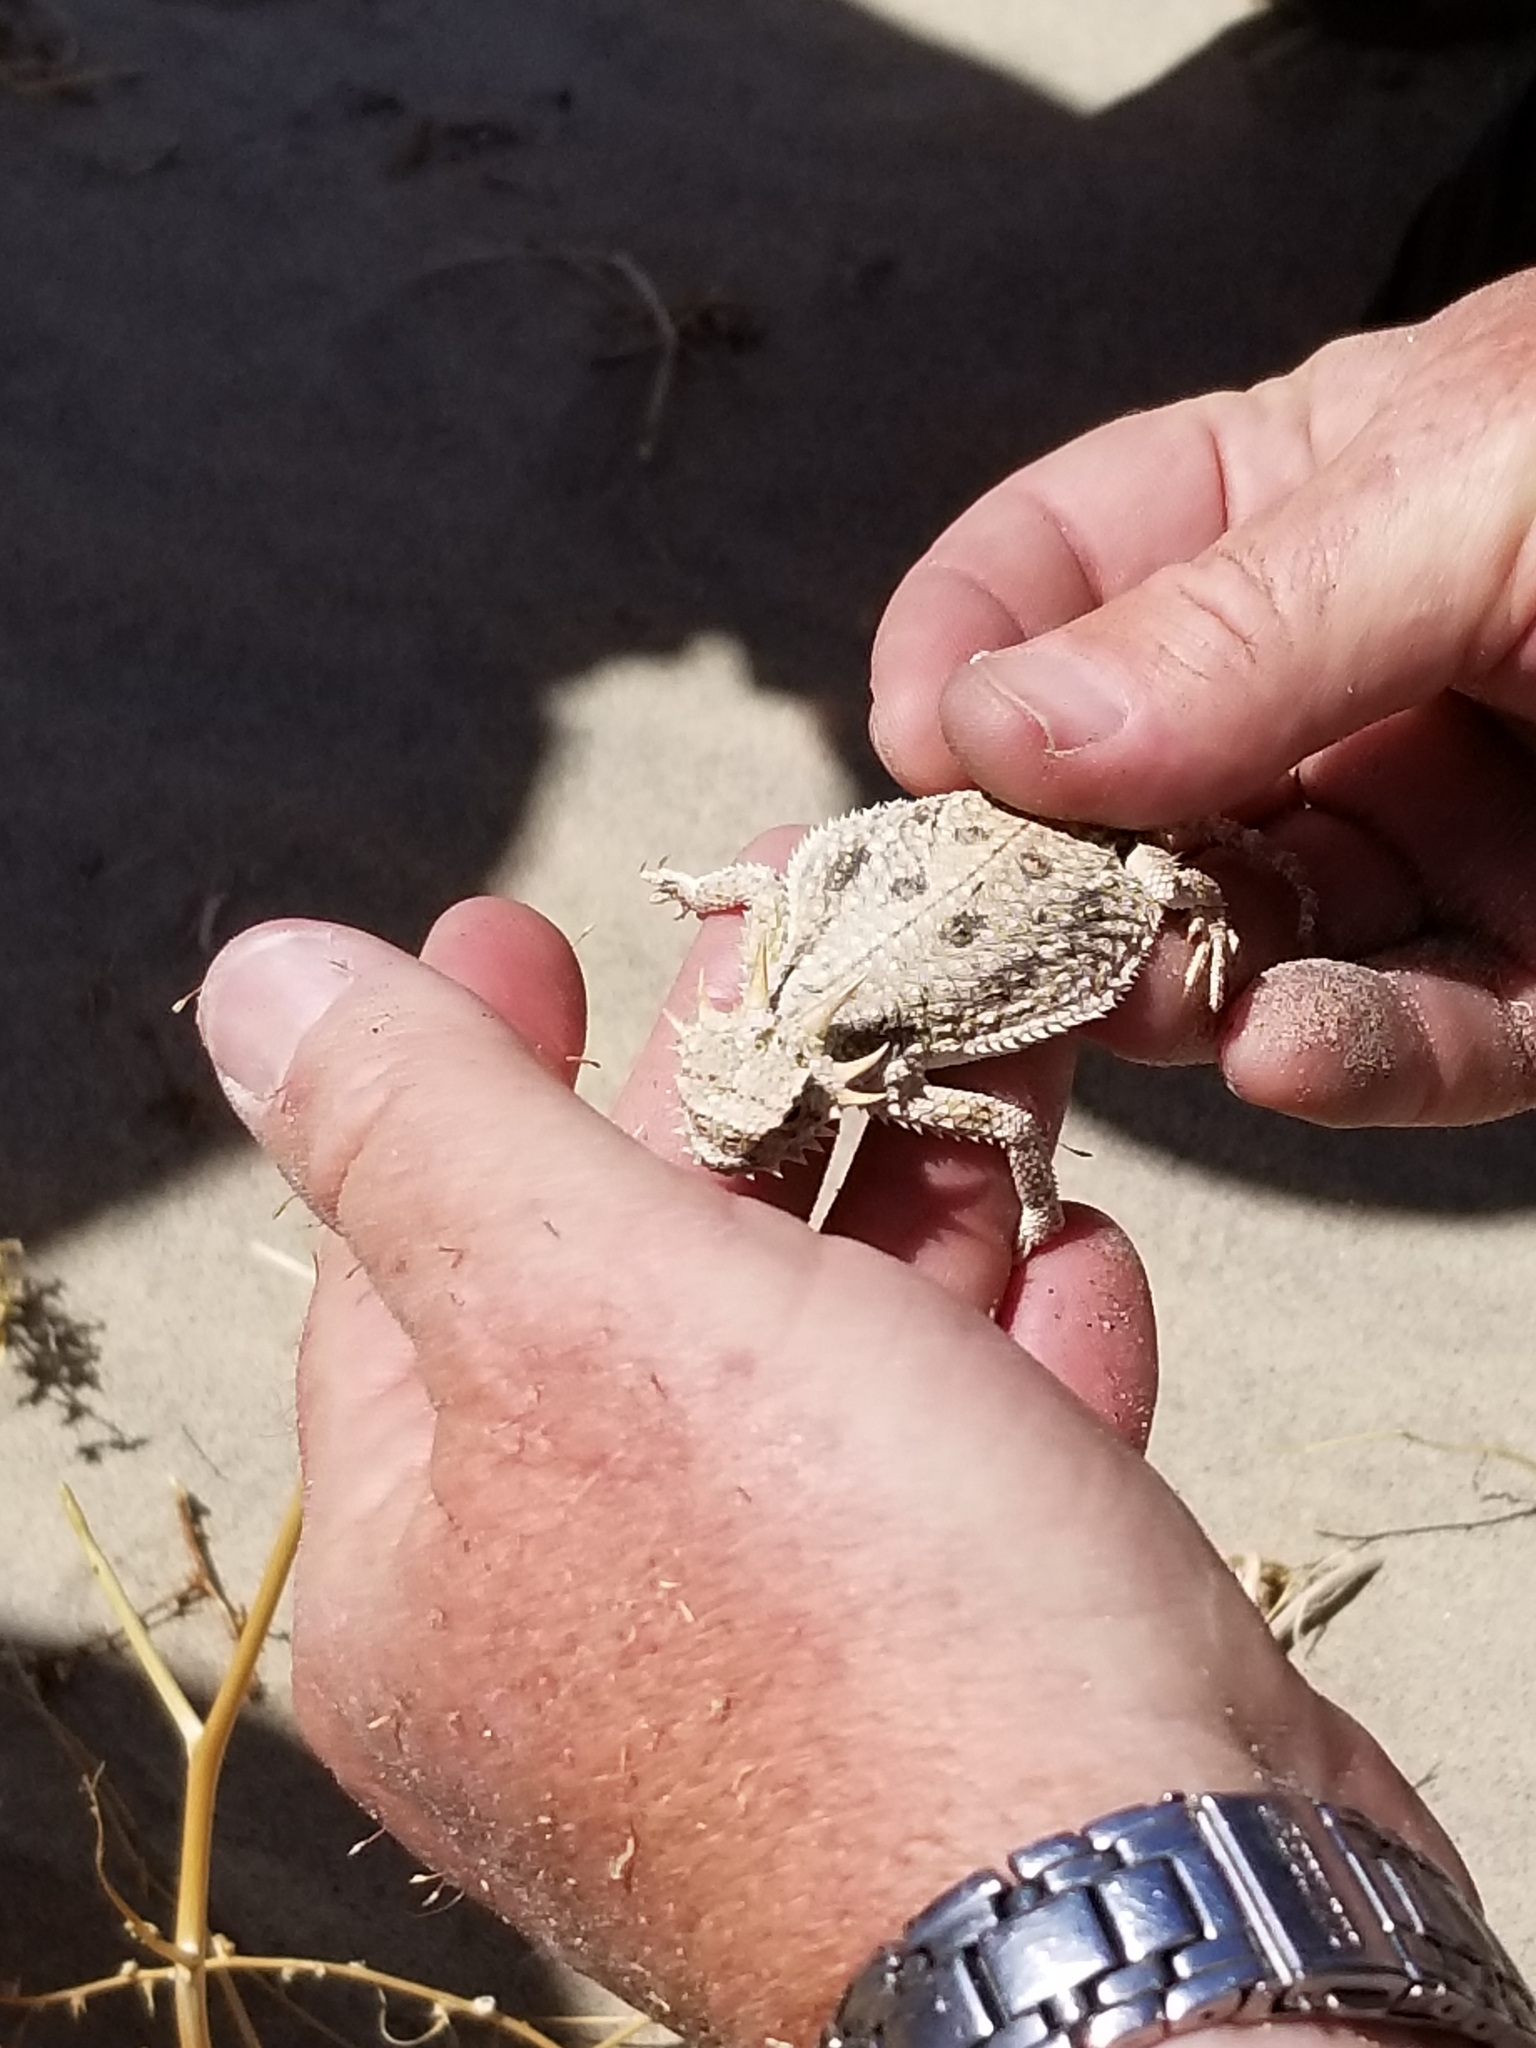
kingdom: Animalia
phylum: Chordata
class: Squamata
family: Phrynosomatidae
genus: Phrynosoma
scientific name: Phrynosoma mcallii
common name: Flat-tailed horned lizard
